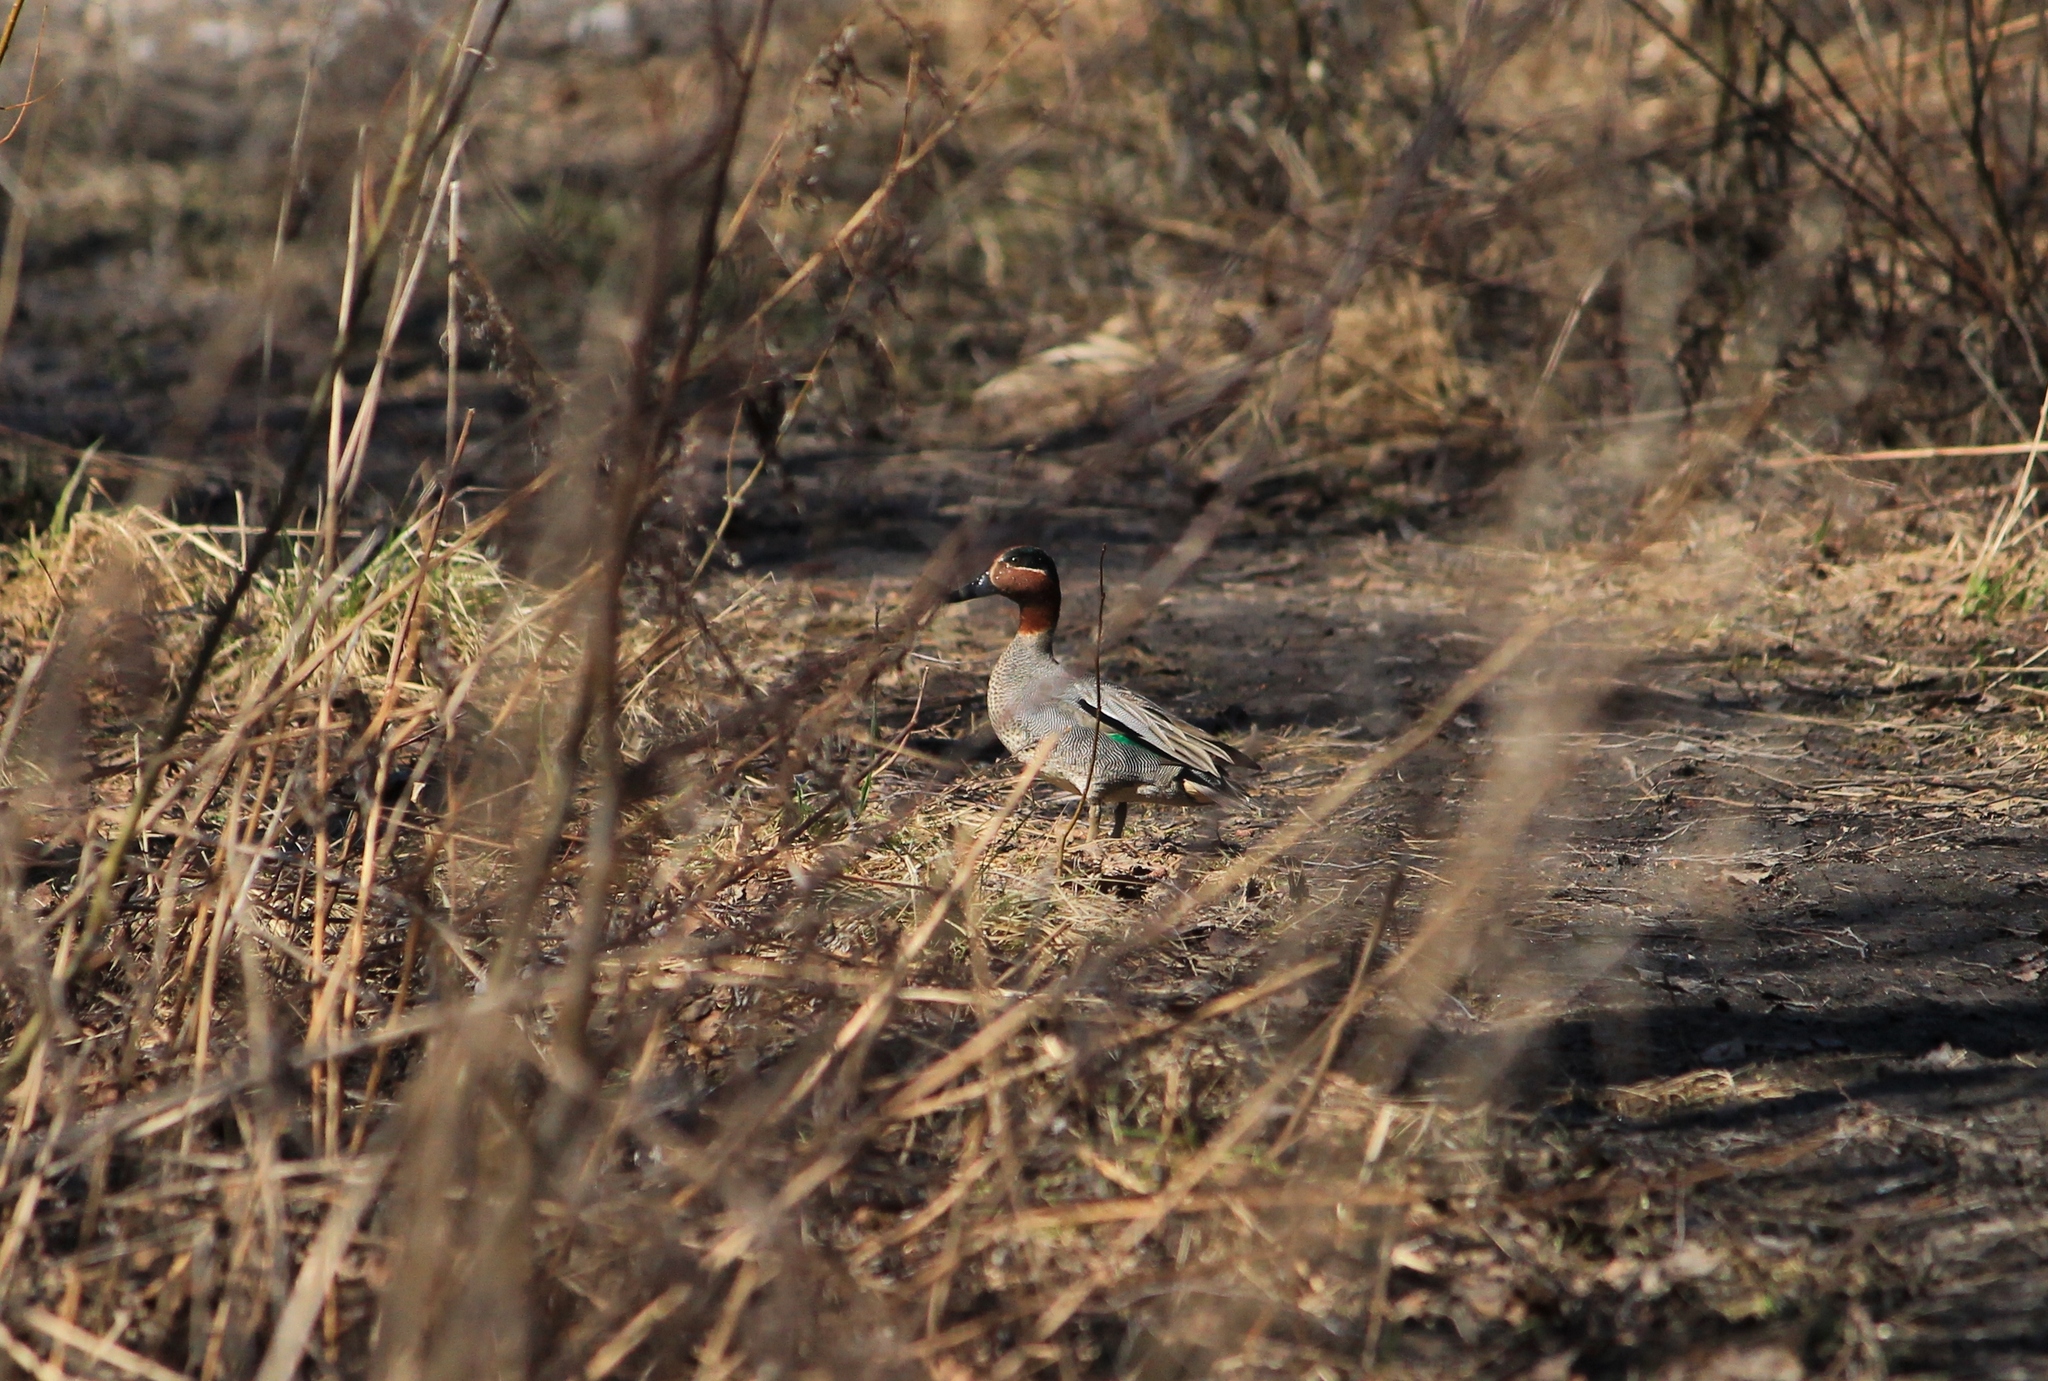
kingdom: Animalia
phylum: Chordata
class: Aves
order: Anseriformes
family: Anatidae
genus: Anas
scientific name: Anas crecca
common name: Eurasian teal
